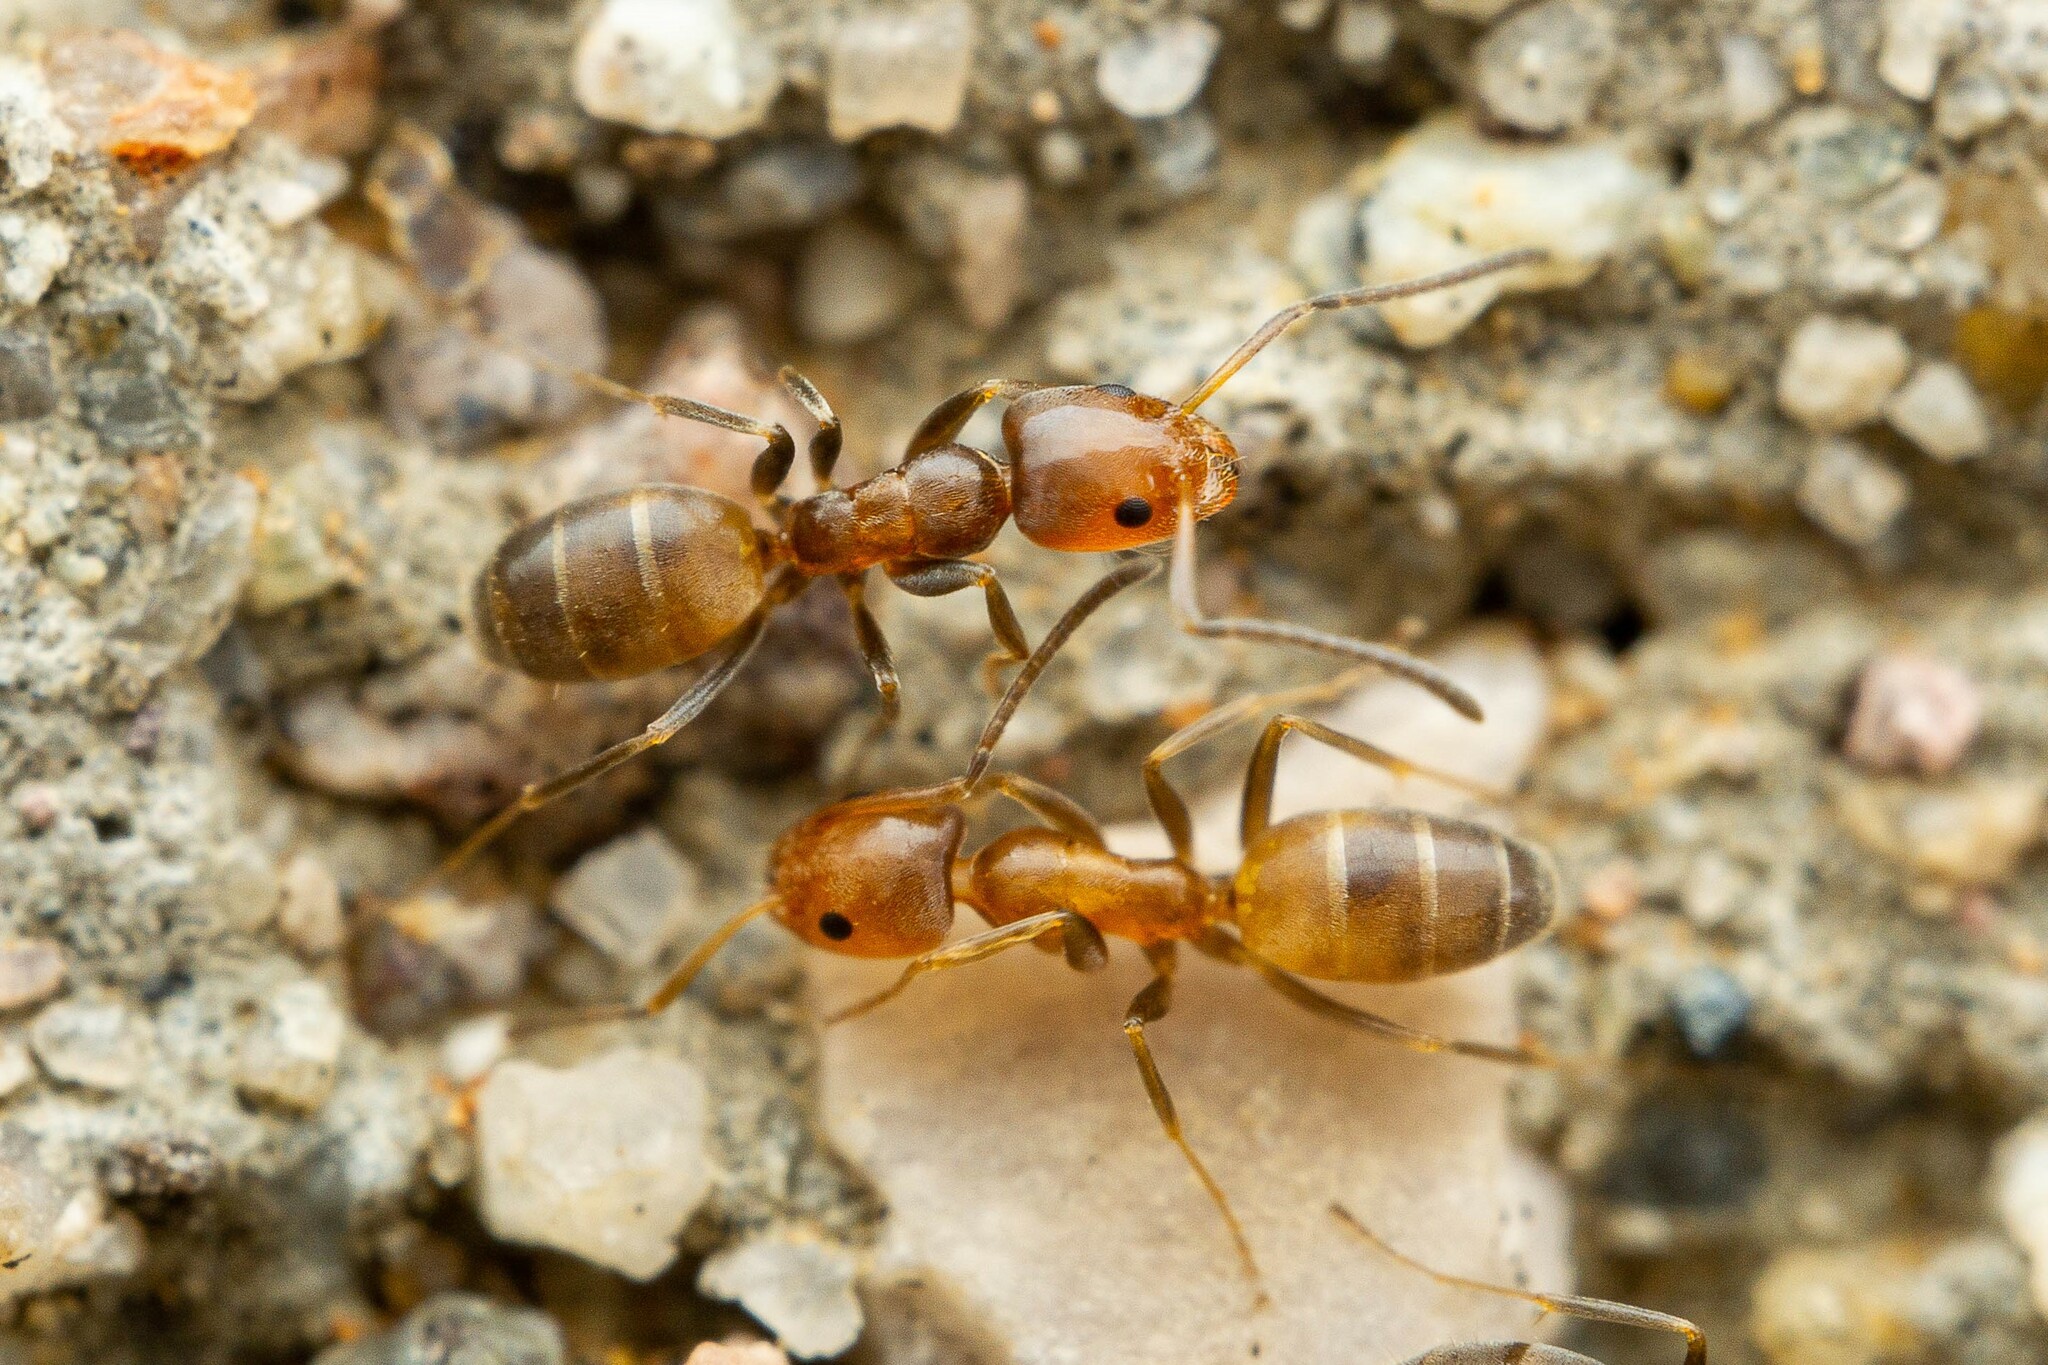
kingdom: Animalia
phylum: Arthropoda
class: Insecta
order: Hymenoptera
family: Formicidae
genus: Forelius
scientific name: Forelius pruinosus
